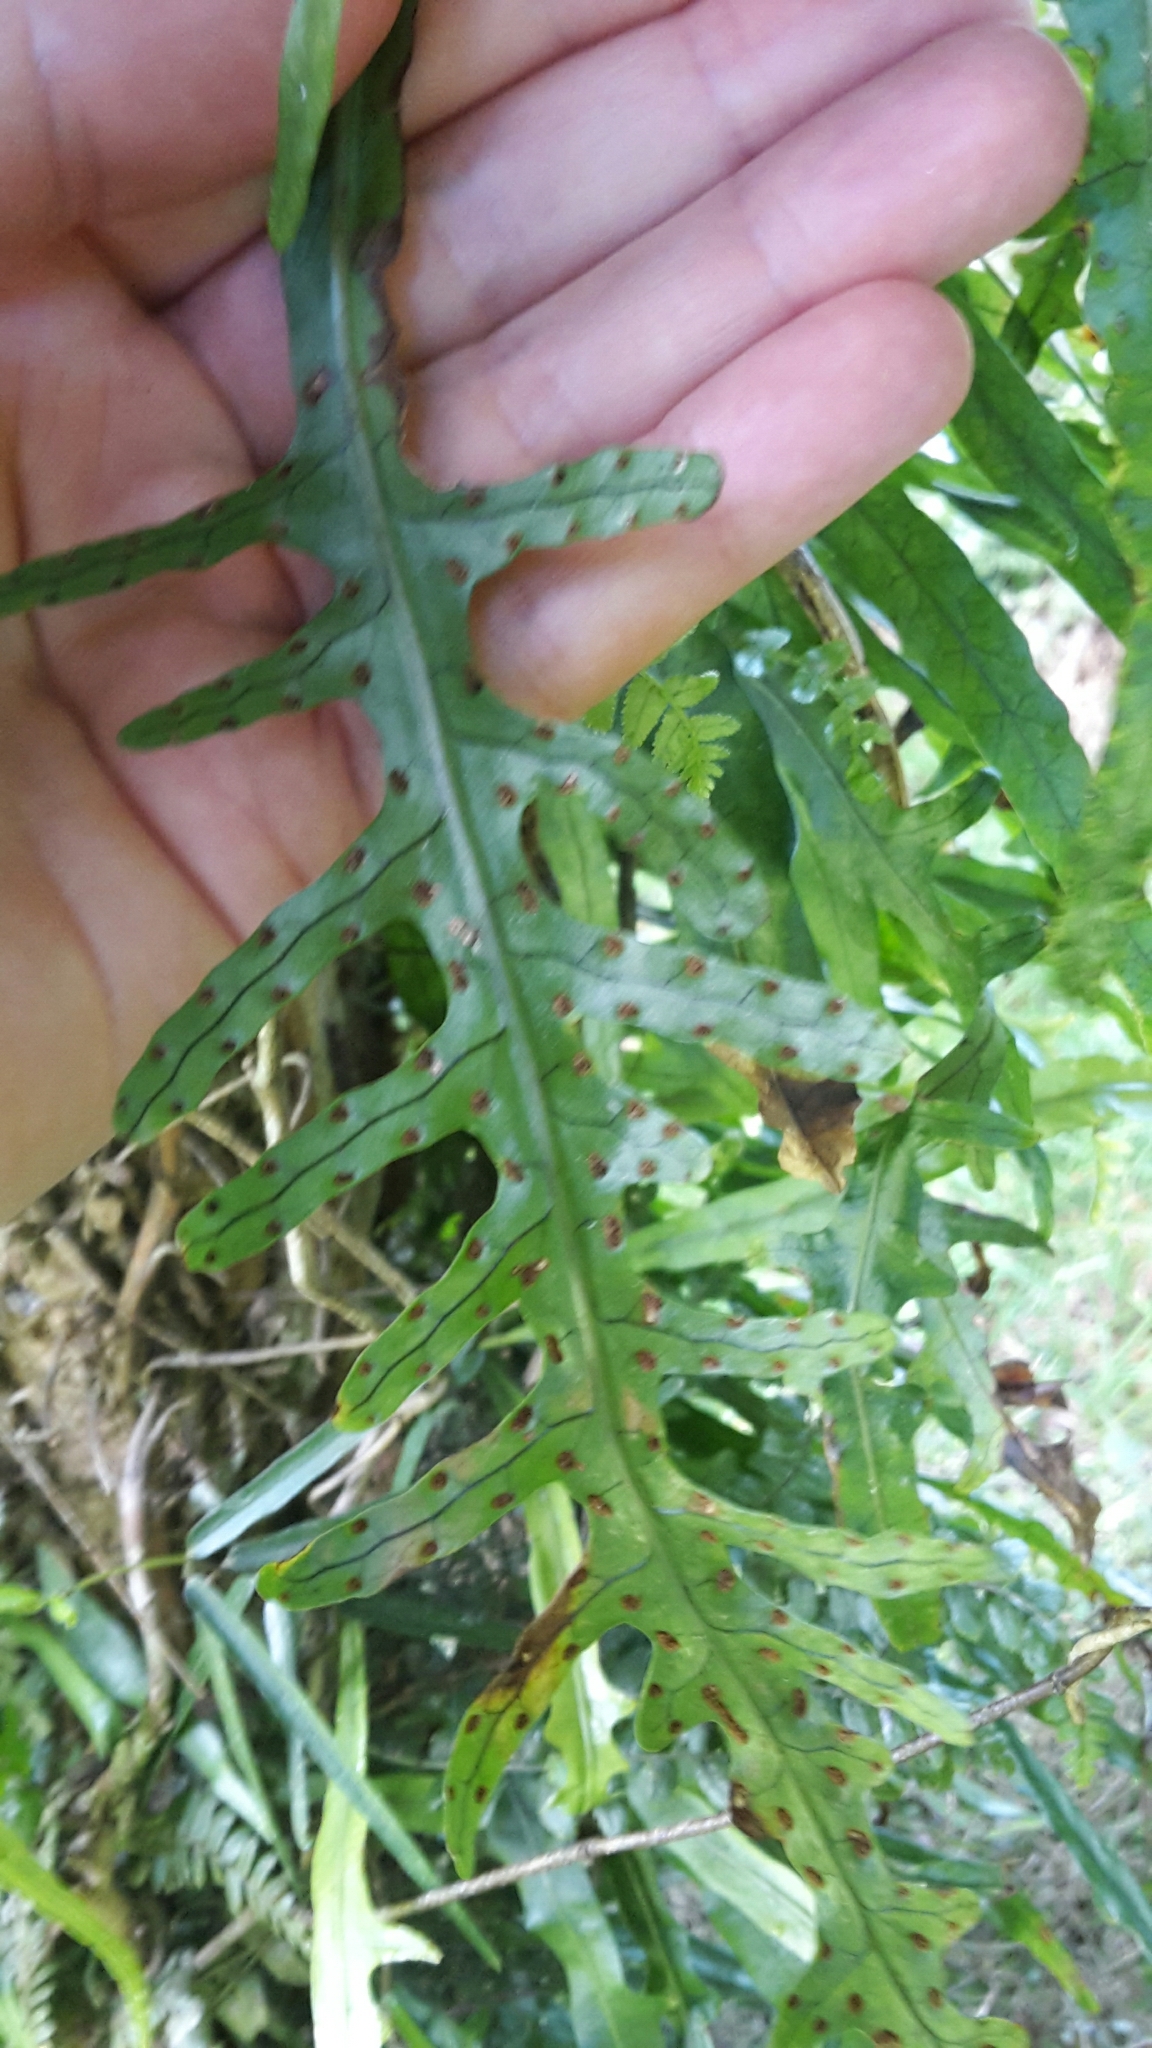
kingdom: Plantae
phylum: Tracheophyta
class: Polypodiopsida
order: Polypodiales
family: Polypodiaceae
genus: Lecanopteris
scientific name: Lecanopteris scandens
